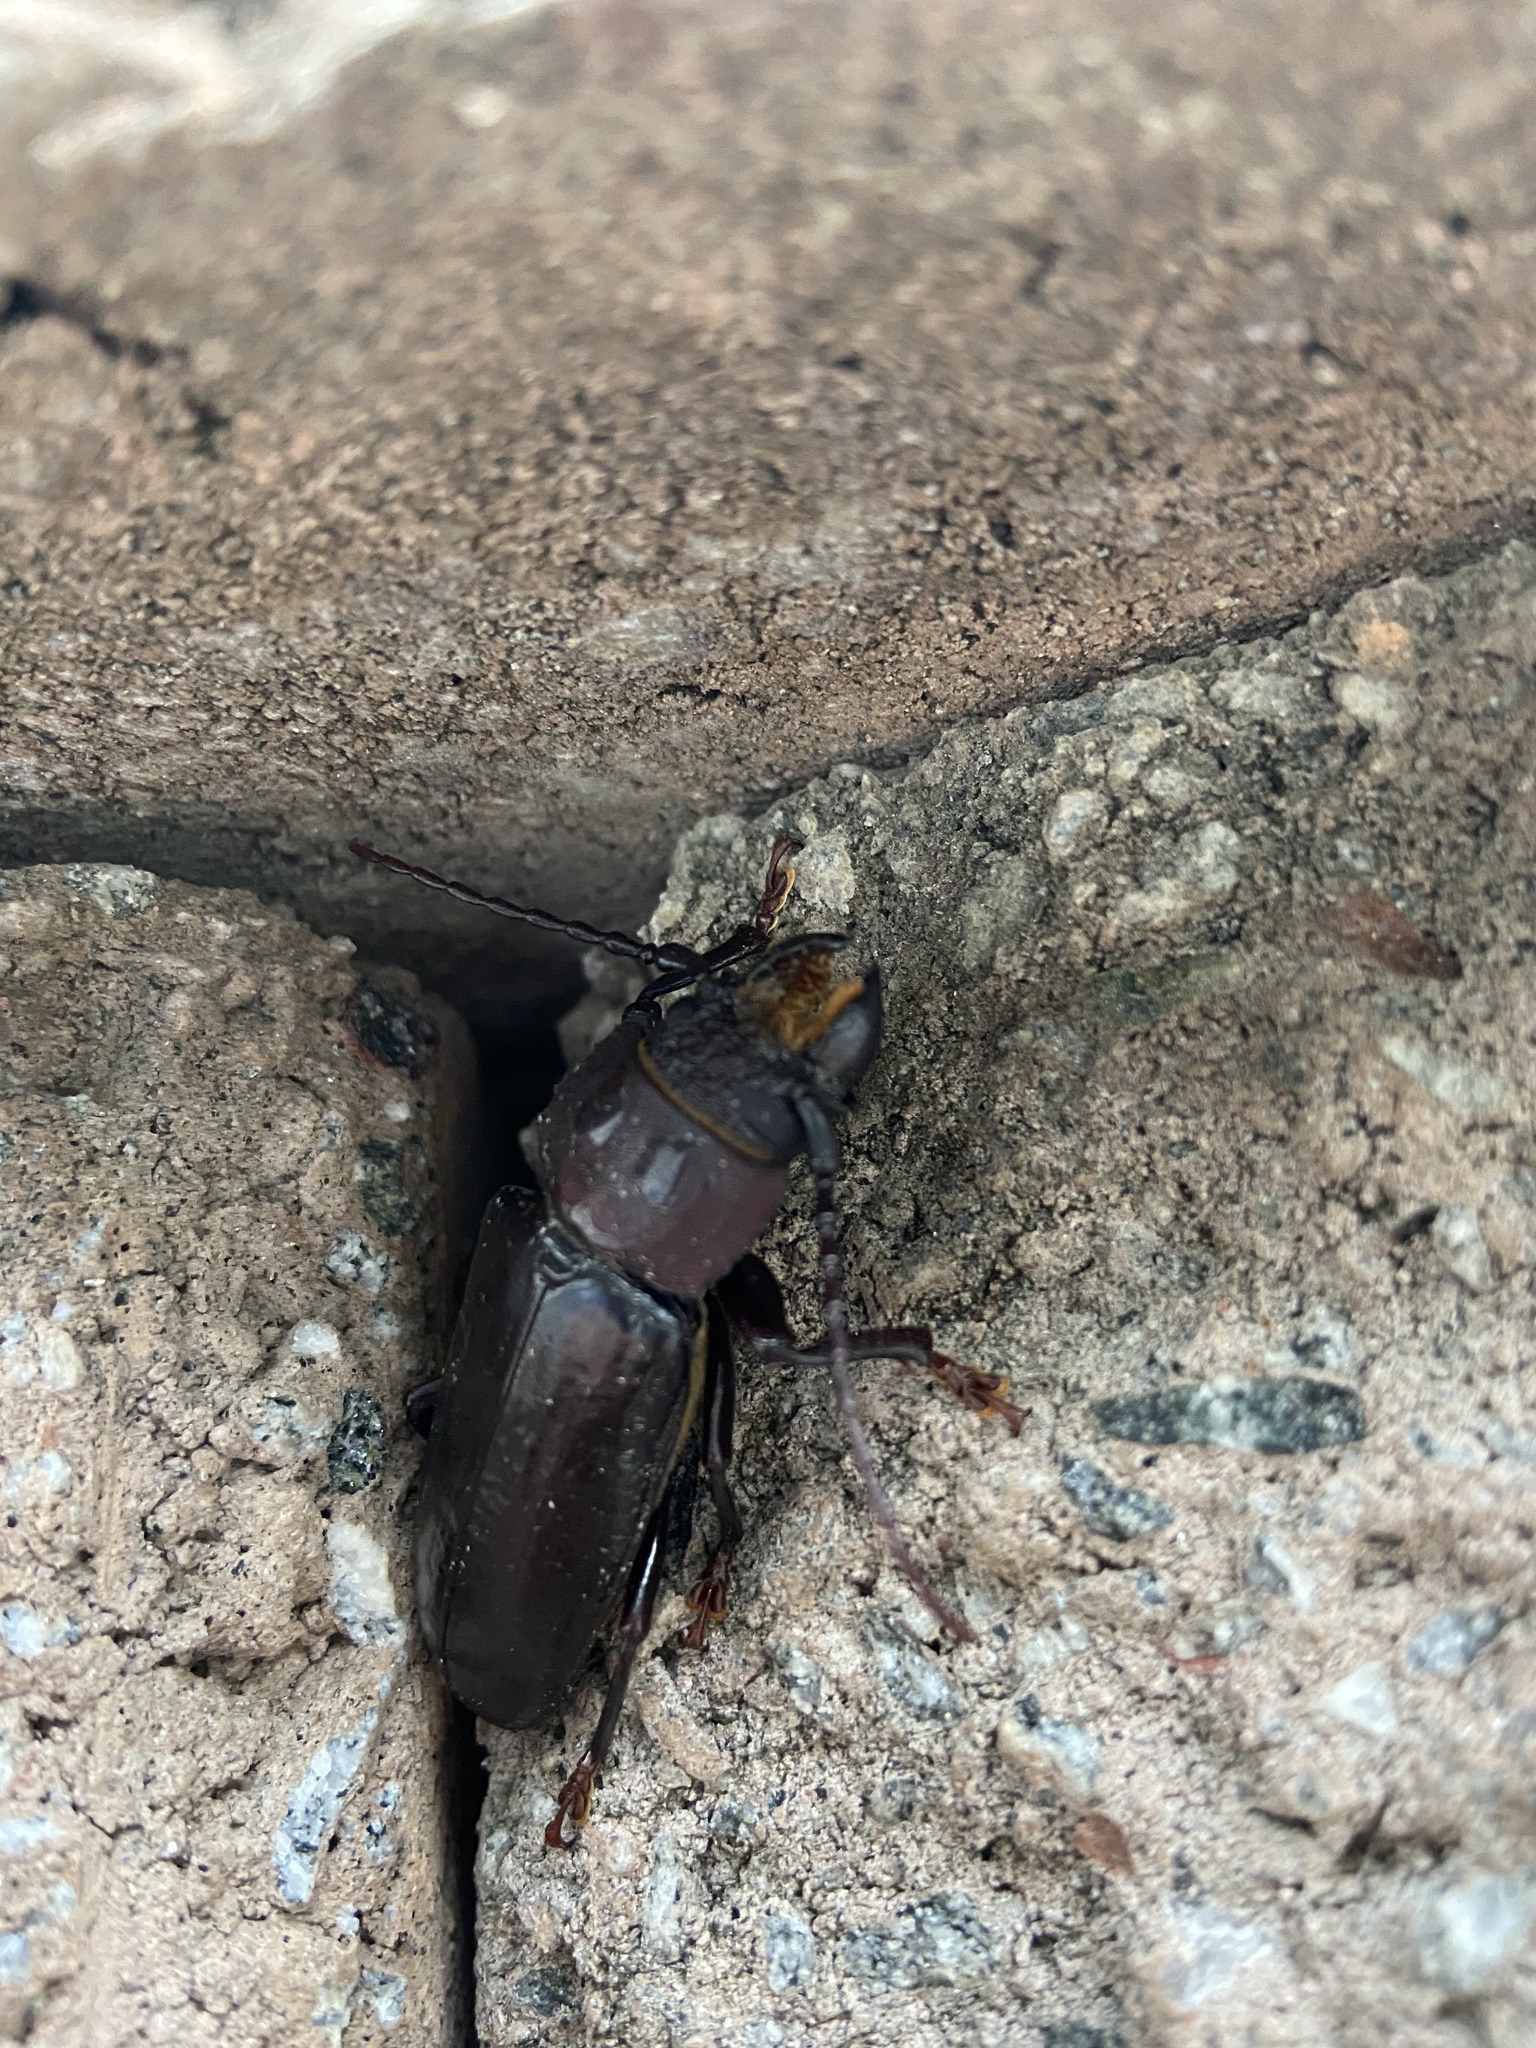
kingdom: Animalia
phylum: Arthropoda
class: Insecta
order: Coleoptera
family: Cerambycidae
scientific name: Cerambycidae
